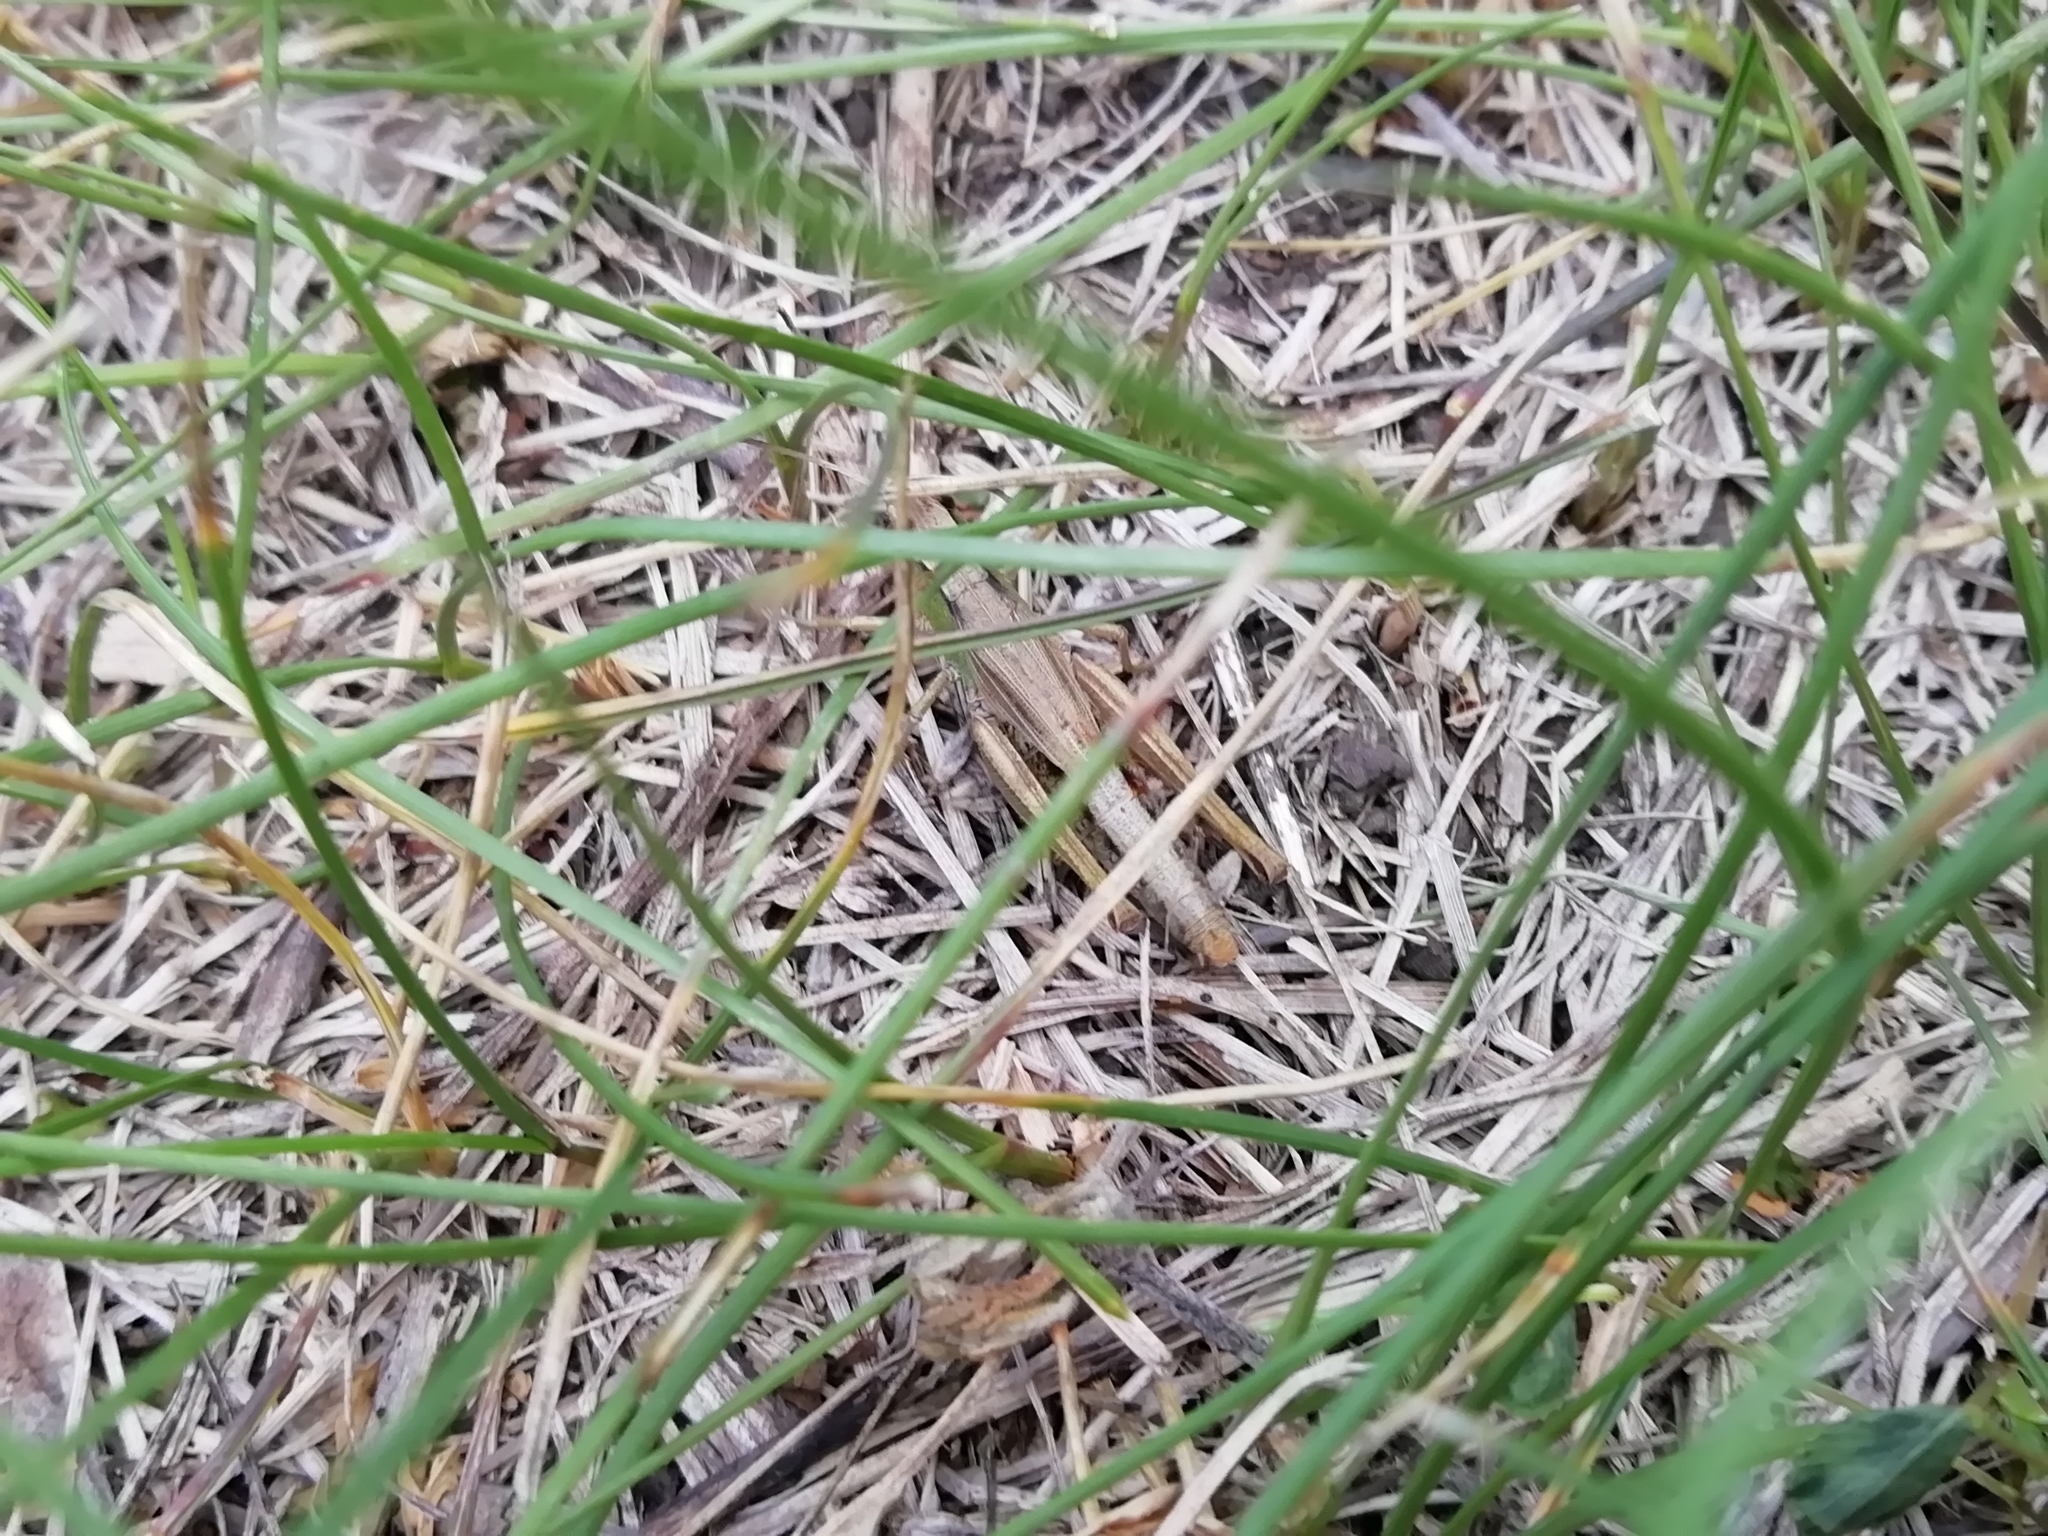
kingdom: Animalia
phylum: Arthropoda
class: Insecta
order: Orthoptera
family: Acrididae
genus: Pseudochorthippus
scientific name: Pseudochorthippus parallelus
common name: Meadow grasshopper
